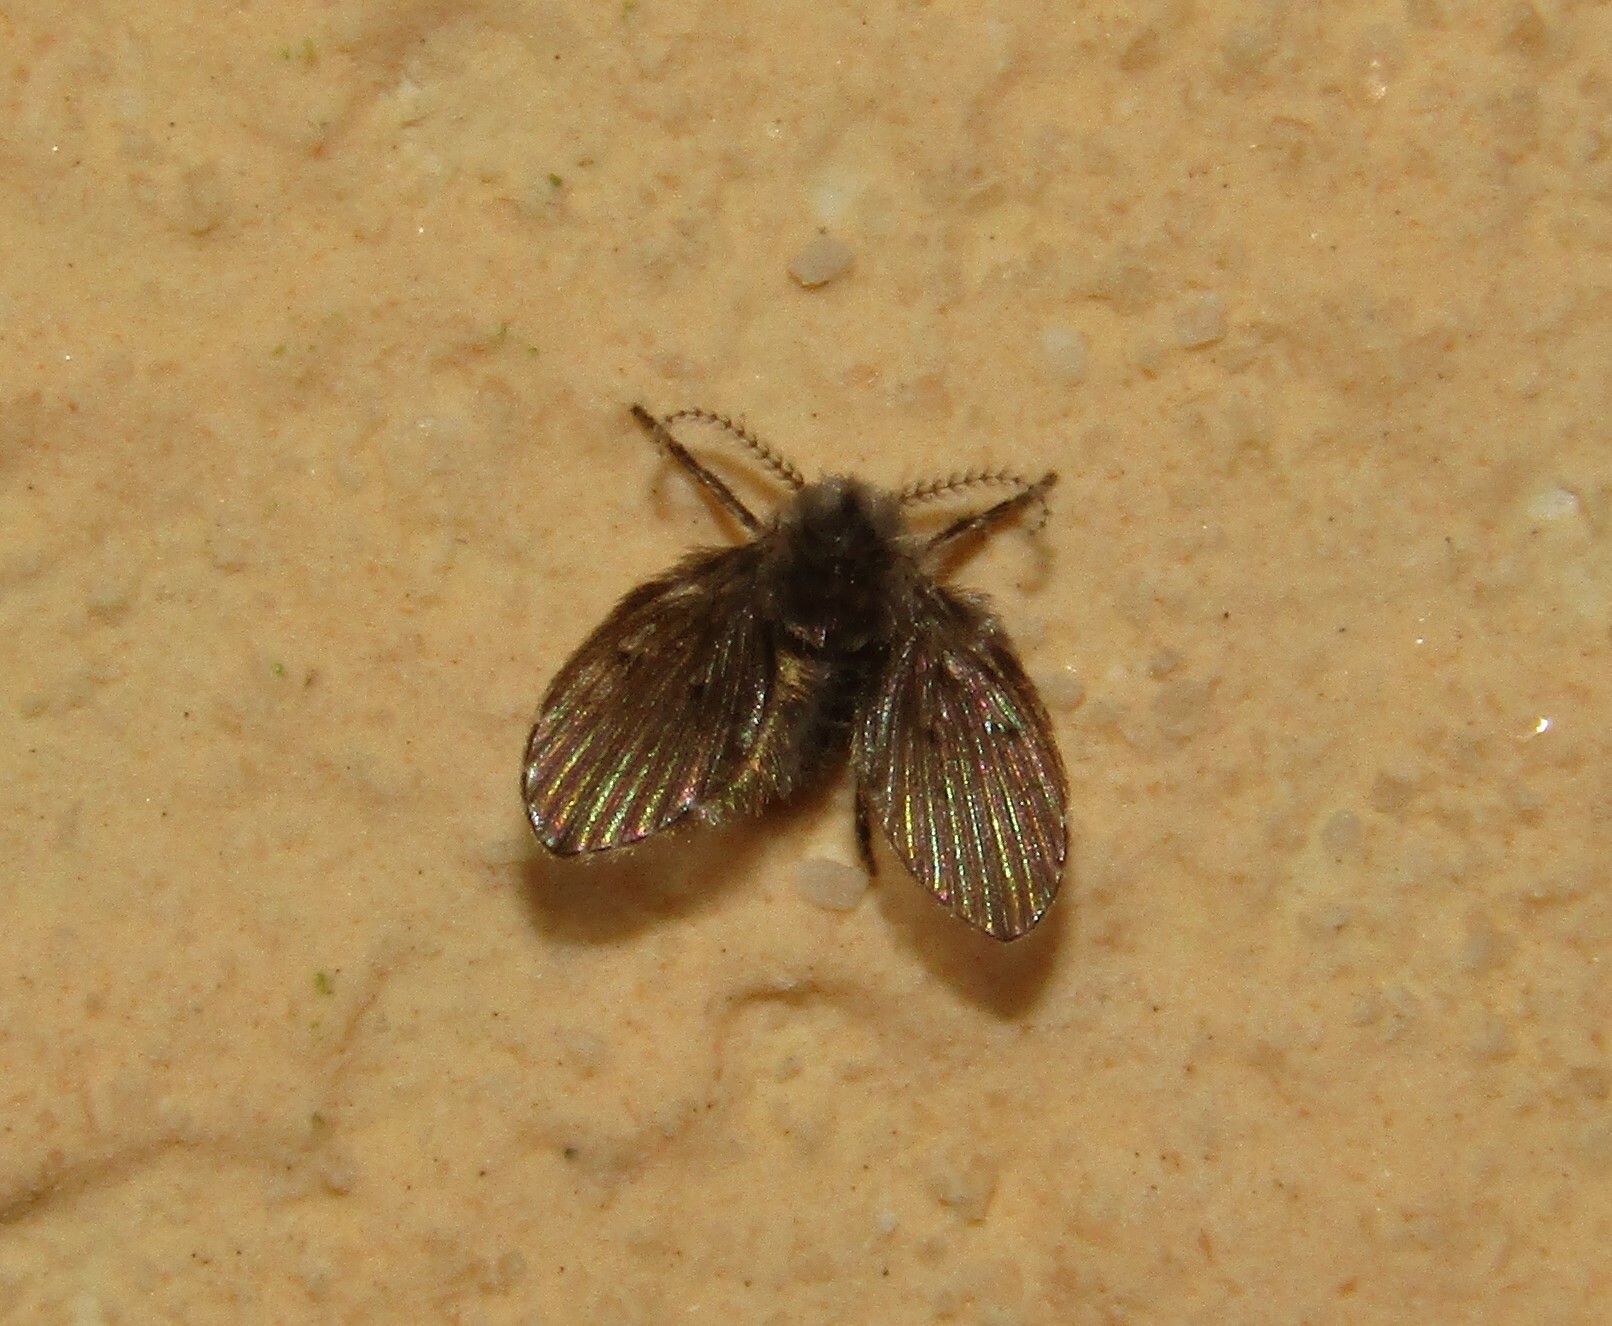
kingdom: Animalia
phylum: Arthropoda
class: Insecta
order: Diptera
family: Psychodidae
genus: Clogmia
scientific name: Clogmia albipunctatus
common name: White-spotted moth fly
